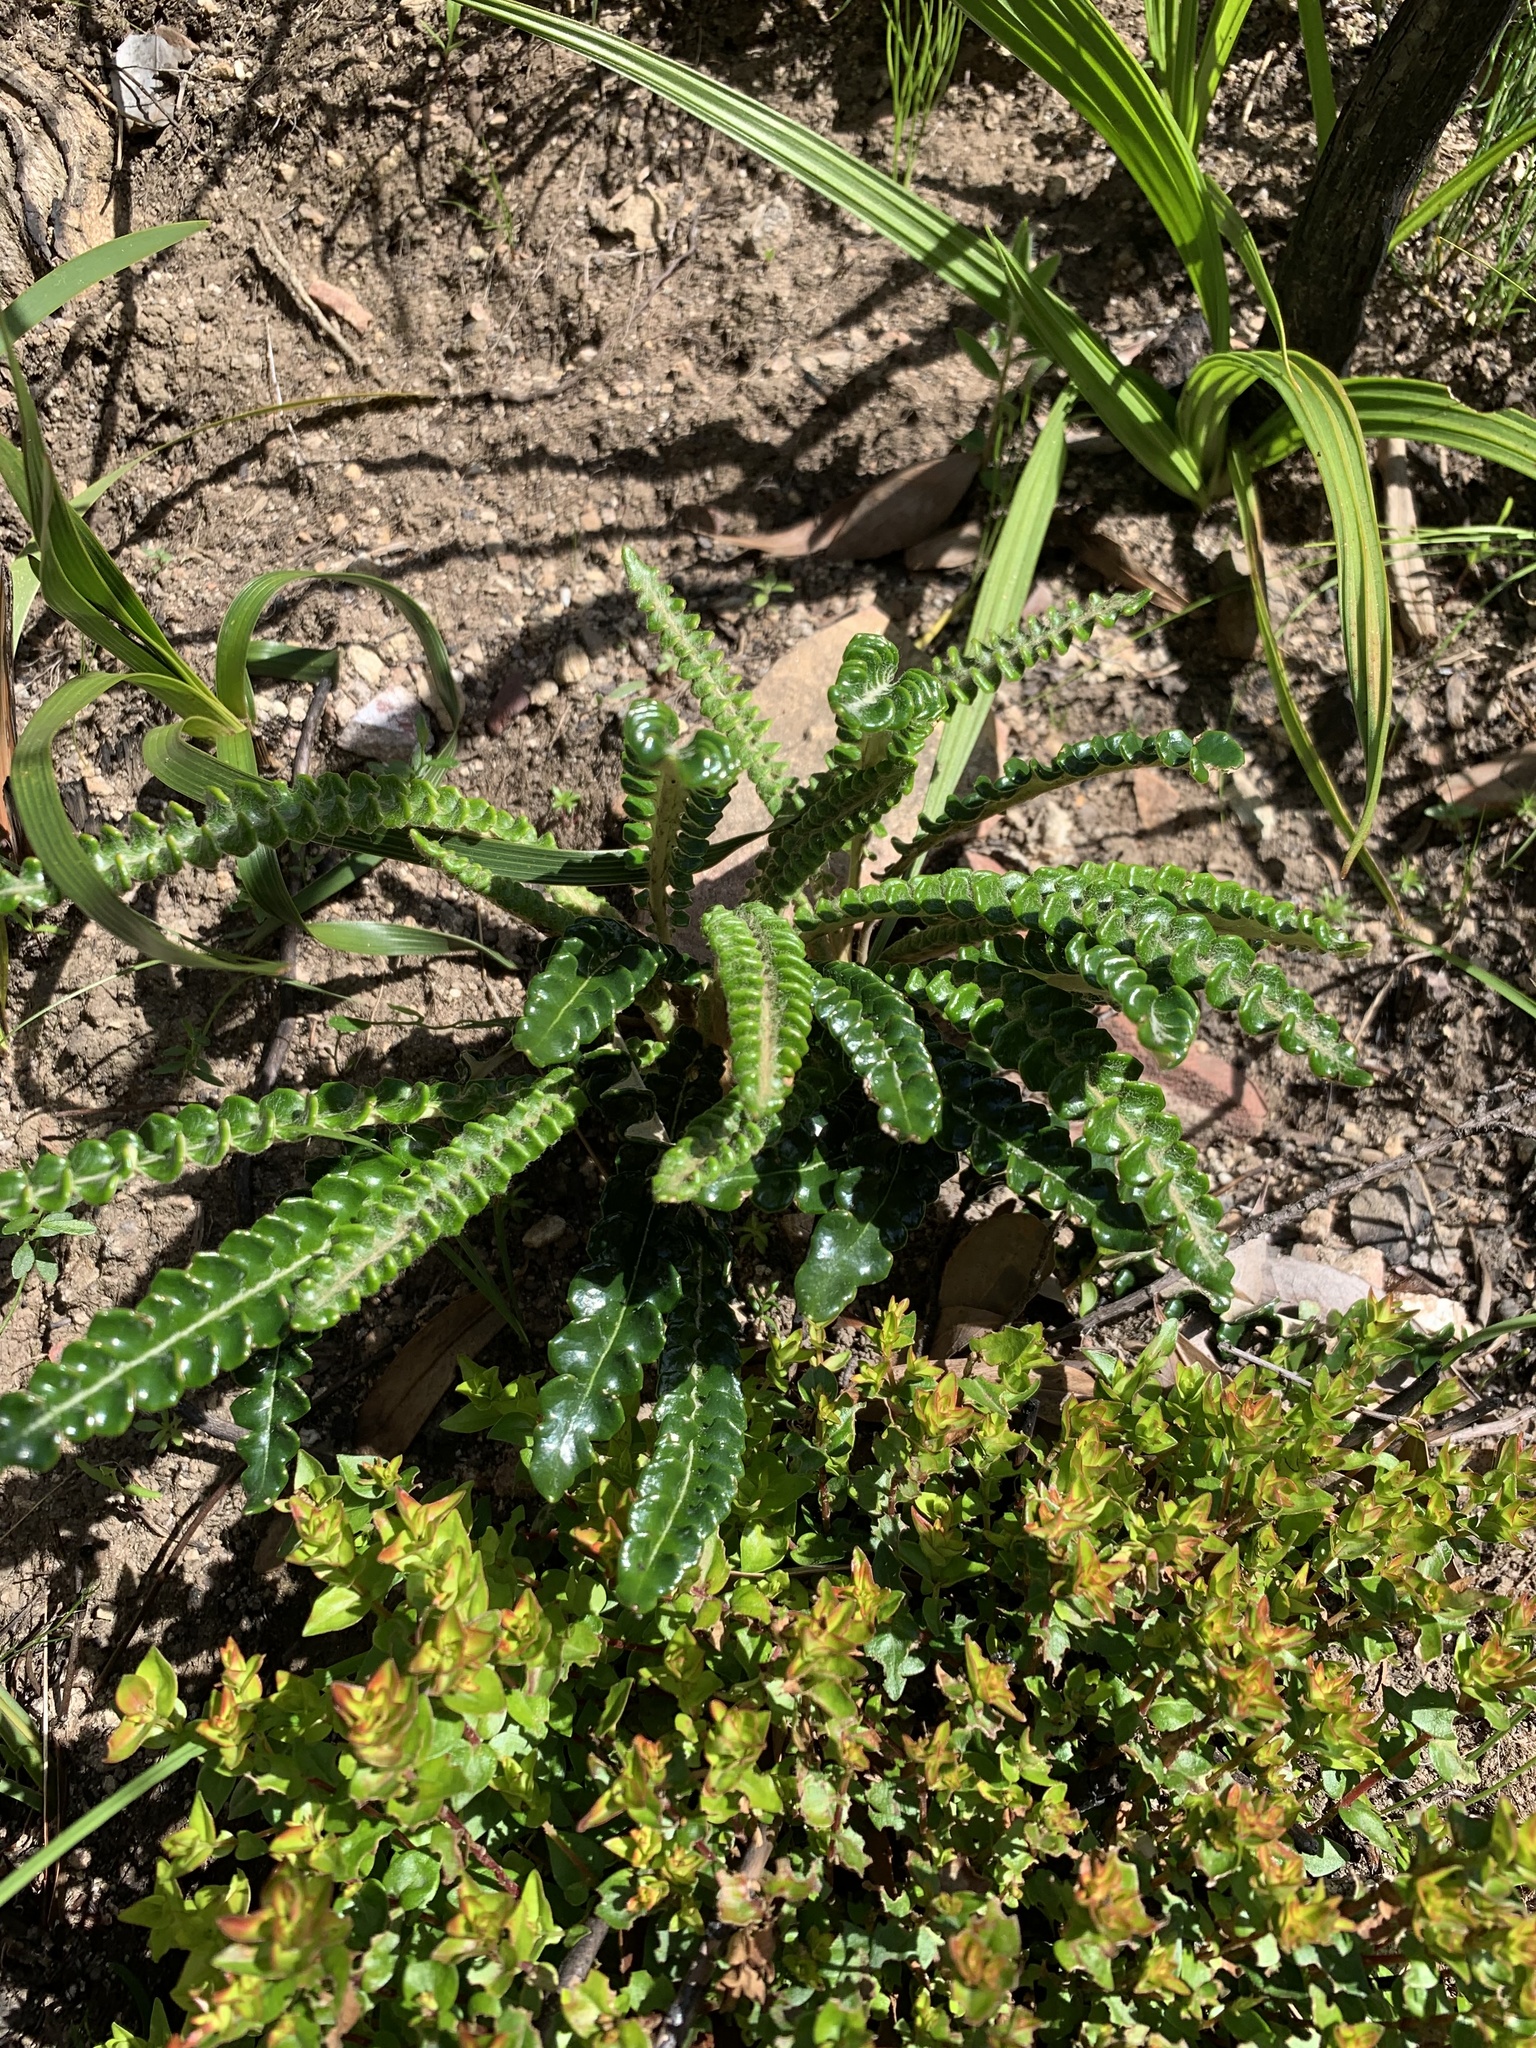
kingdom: Plantae
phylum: Tracheophyta
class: Magnoliopsida
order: Asterales
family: Asteraceae
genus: Gerbera
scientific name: Gerbera linnaei
